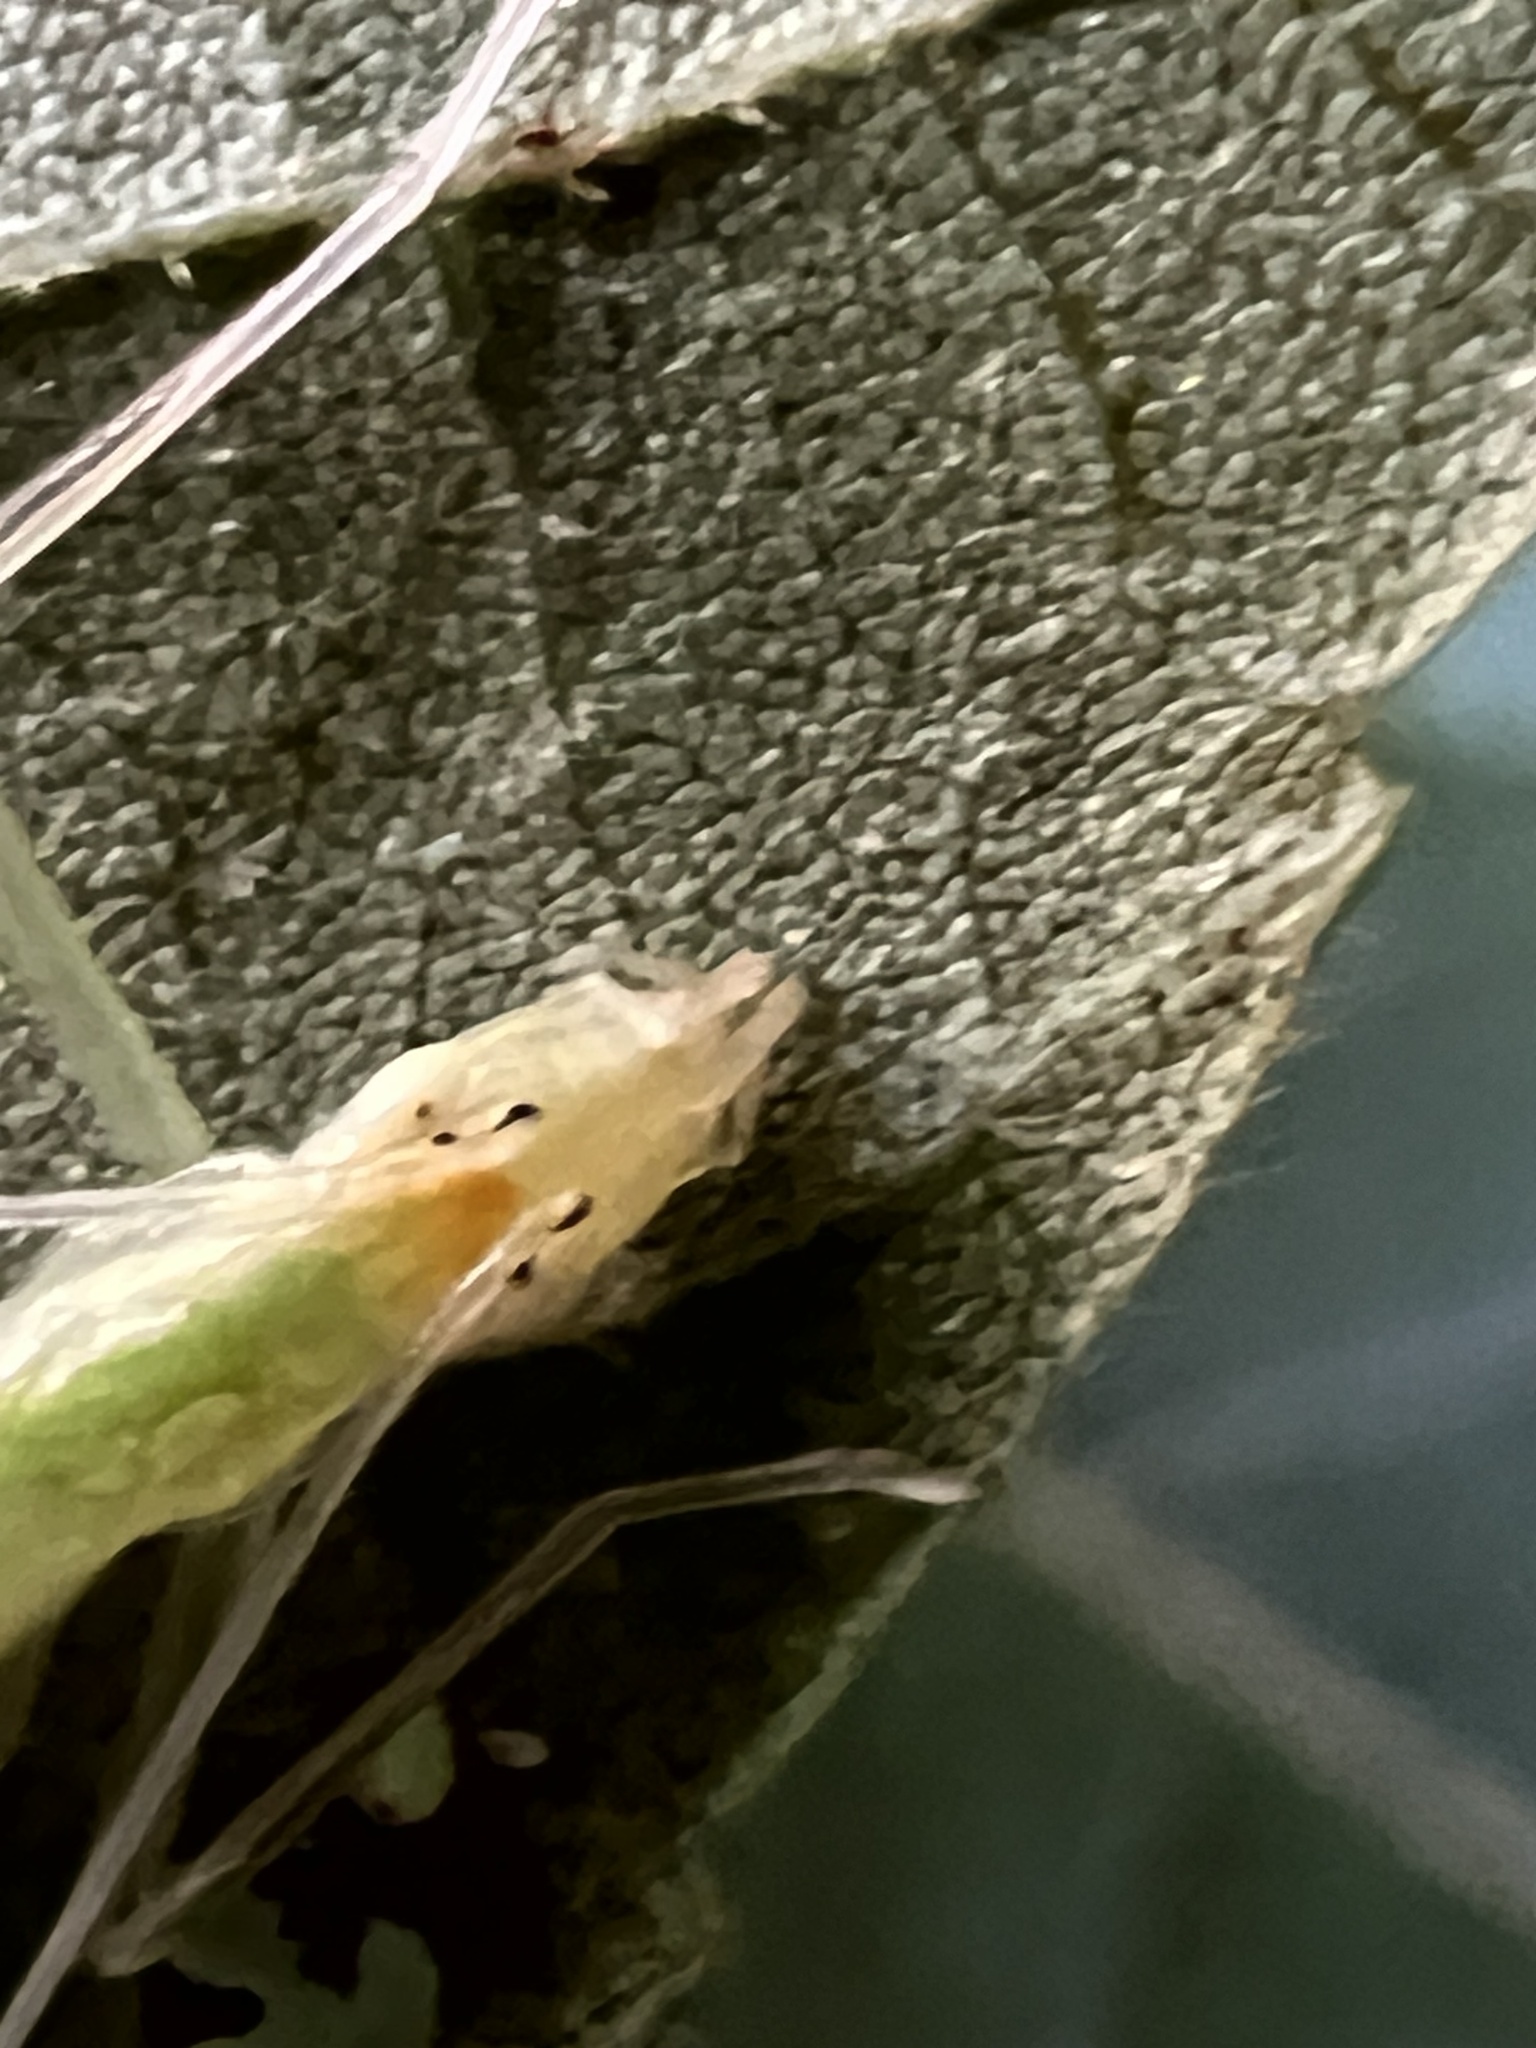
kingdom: Animalia
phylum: Arthropoda
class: Insecta
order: Orthoptera
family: Gryllidae
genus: Oecanthus
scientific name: Oecanthus niveus
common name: Narrow-winged tree cricket
